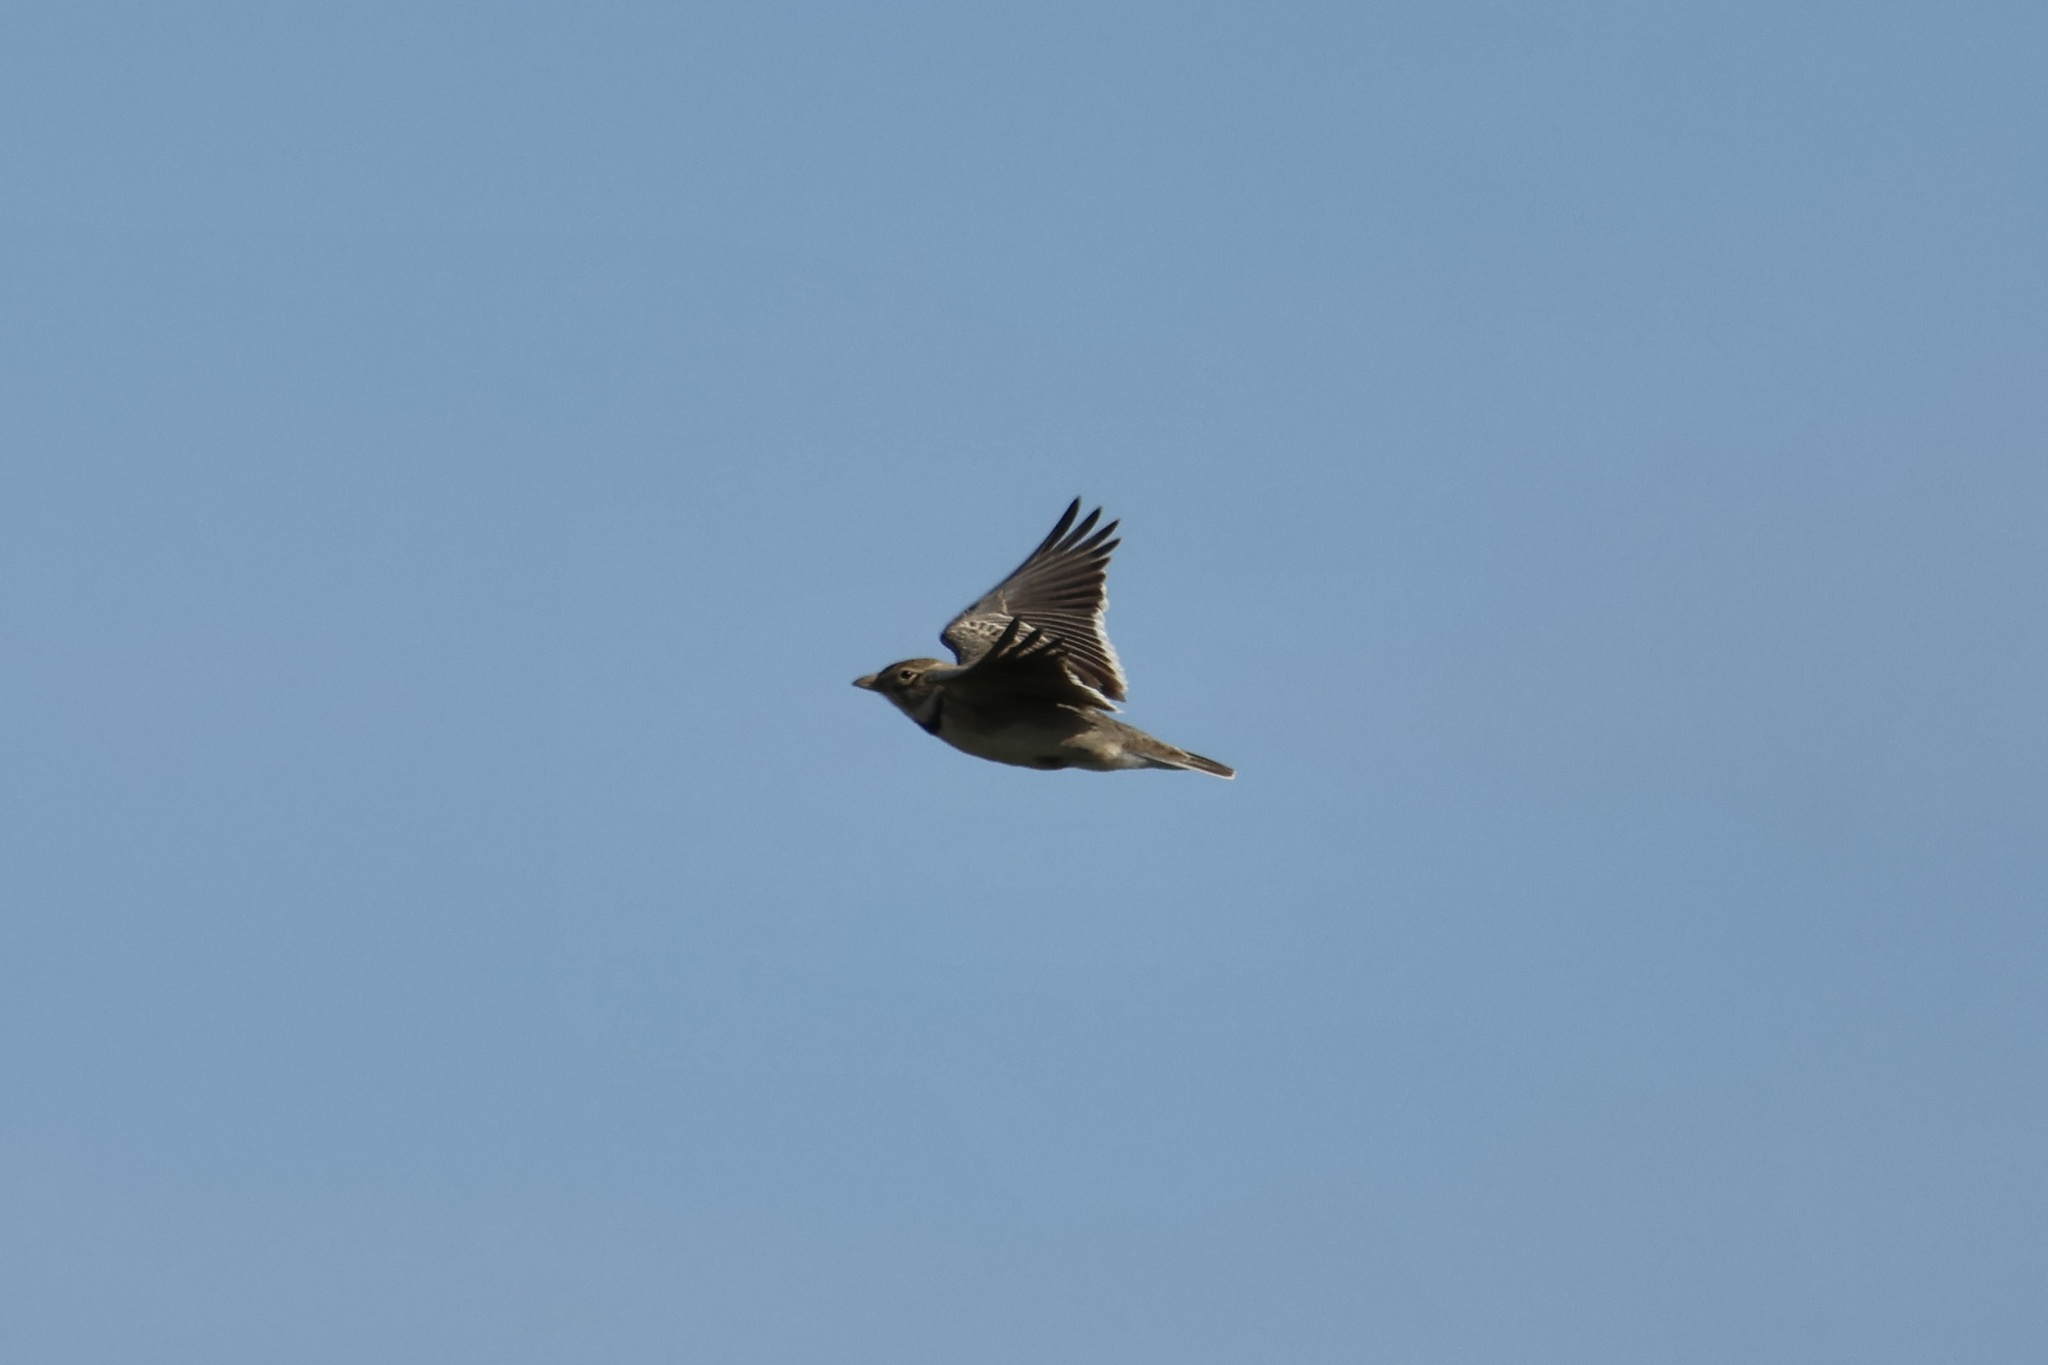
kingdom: Animalia
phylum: Chordata
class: Aves
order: Passeriformes
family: Alaudidae
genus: Melanocorypha
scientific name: Melanocorypha calandra
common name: Calandra lark
